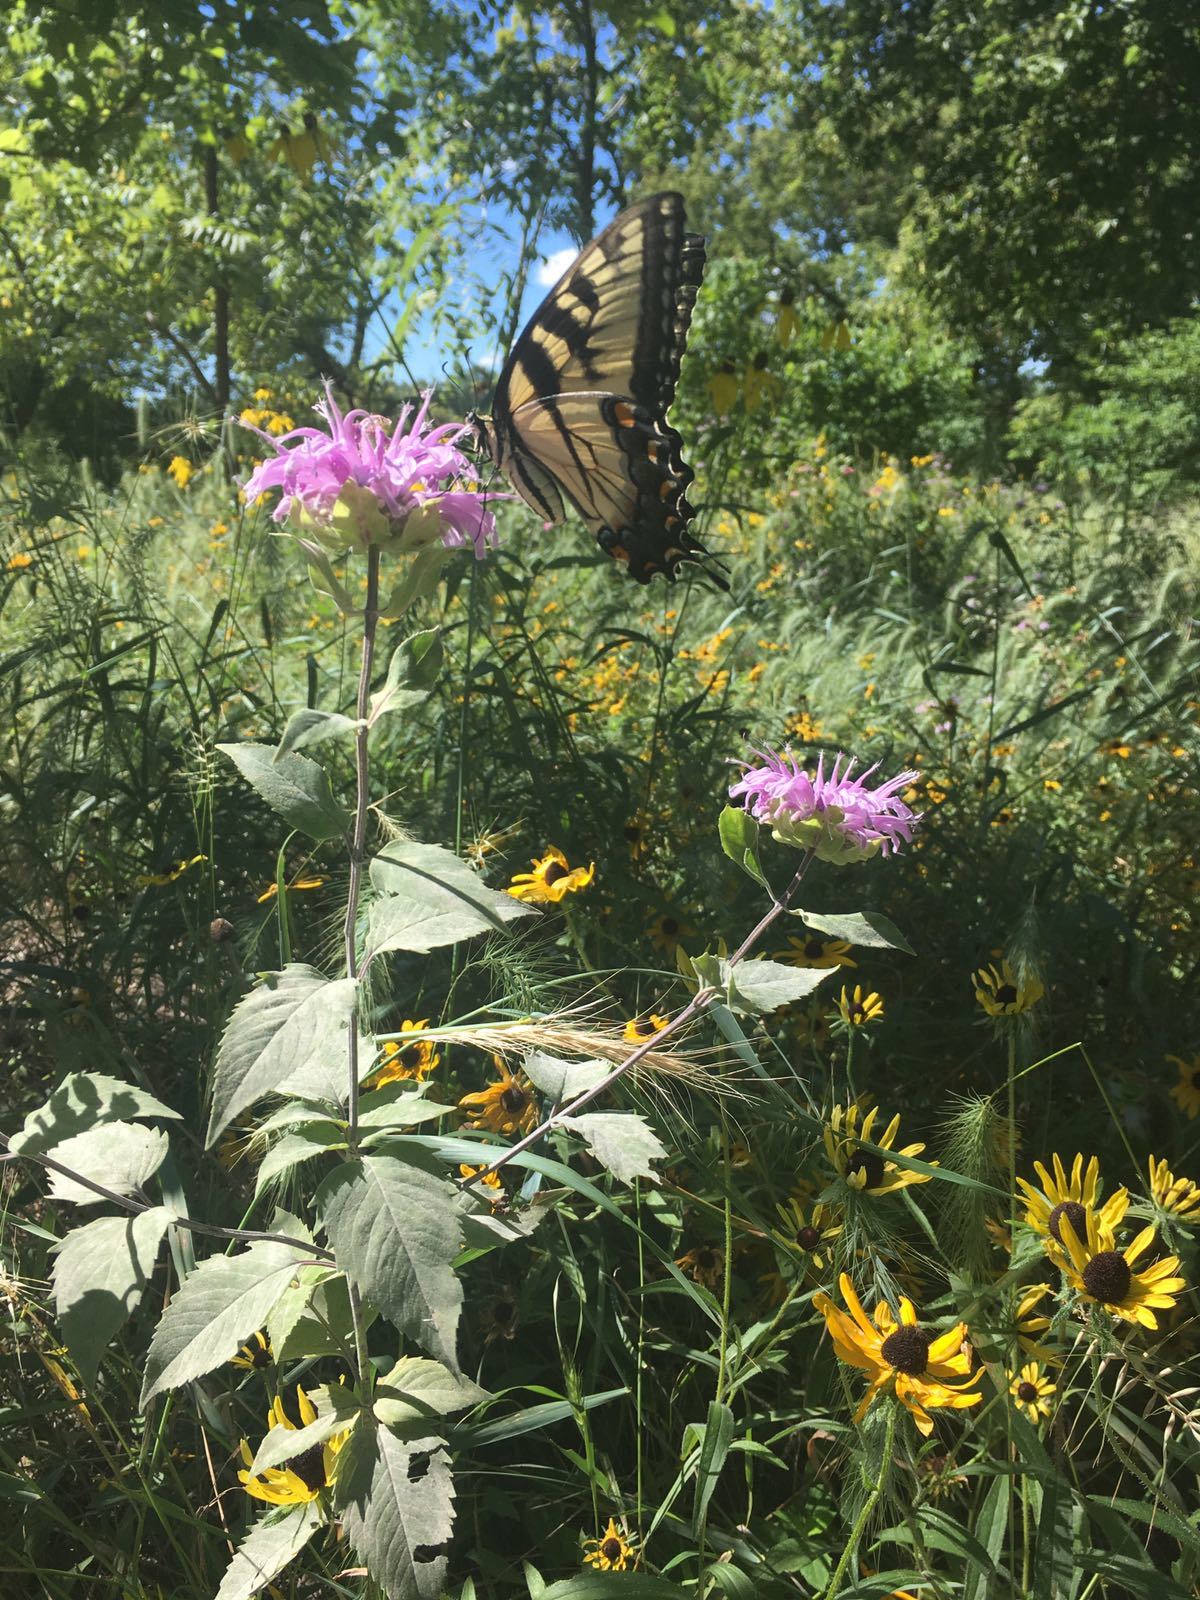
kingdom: Animalia
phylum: Arthropoda
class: Insecta
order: Lepidoptera
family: Papilionidae
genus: Papilio
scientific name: Papilio glaucus
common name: Tiger swallowtail
